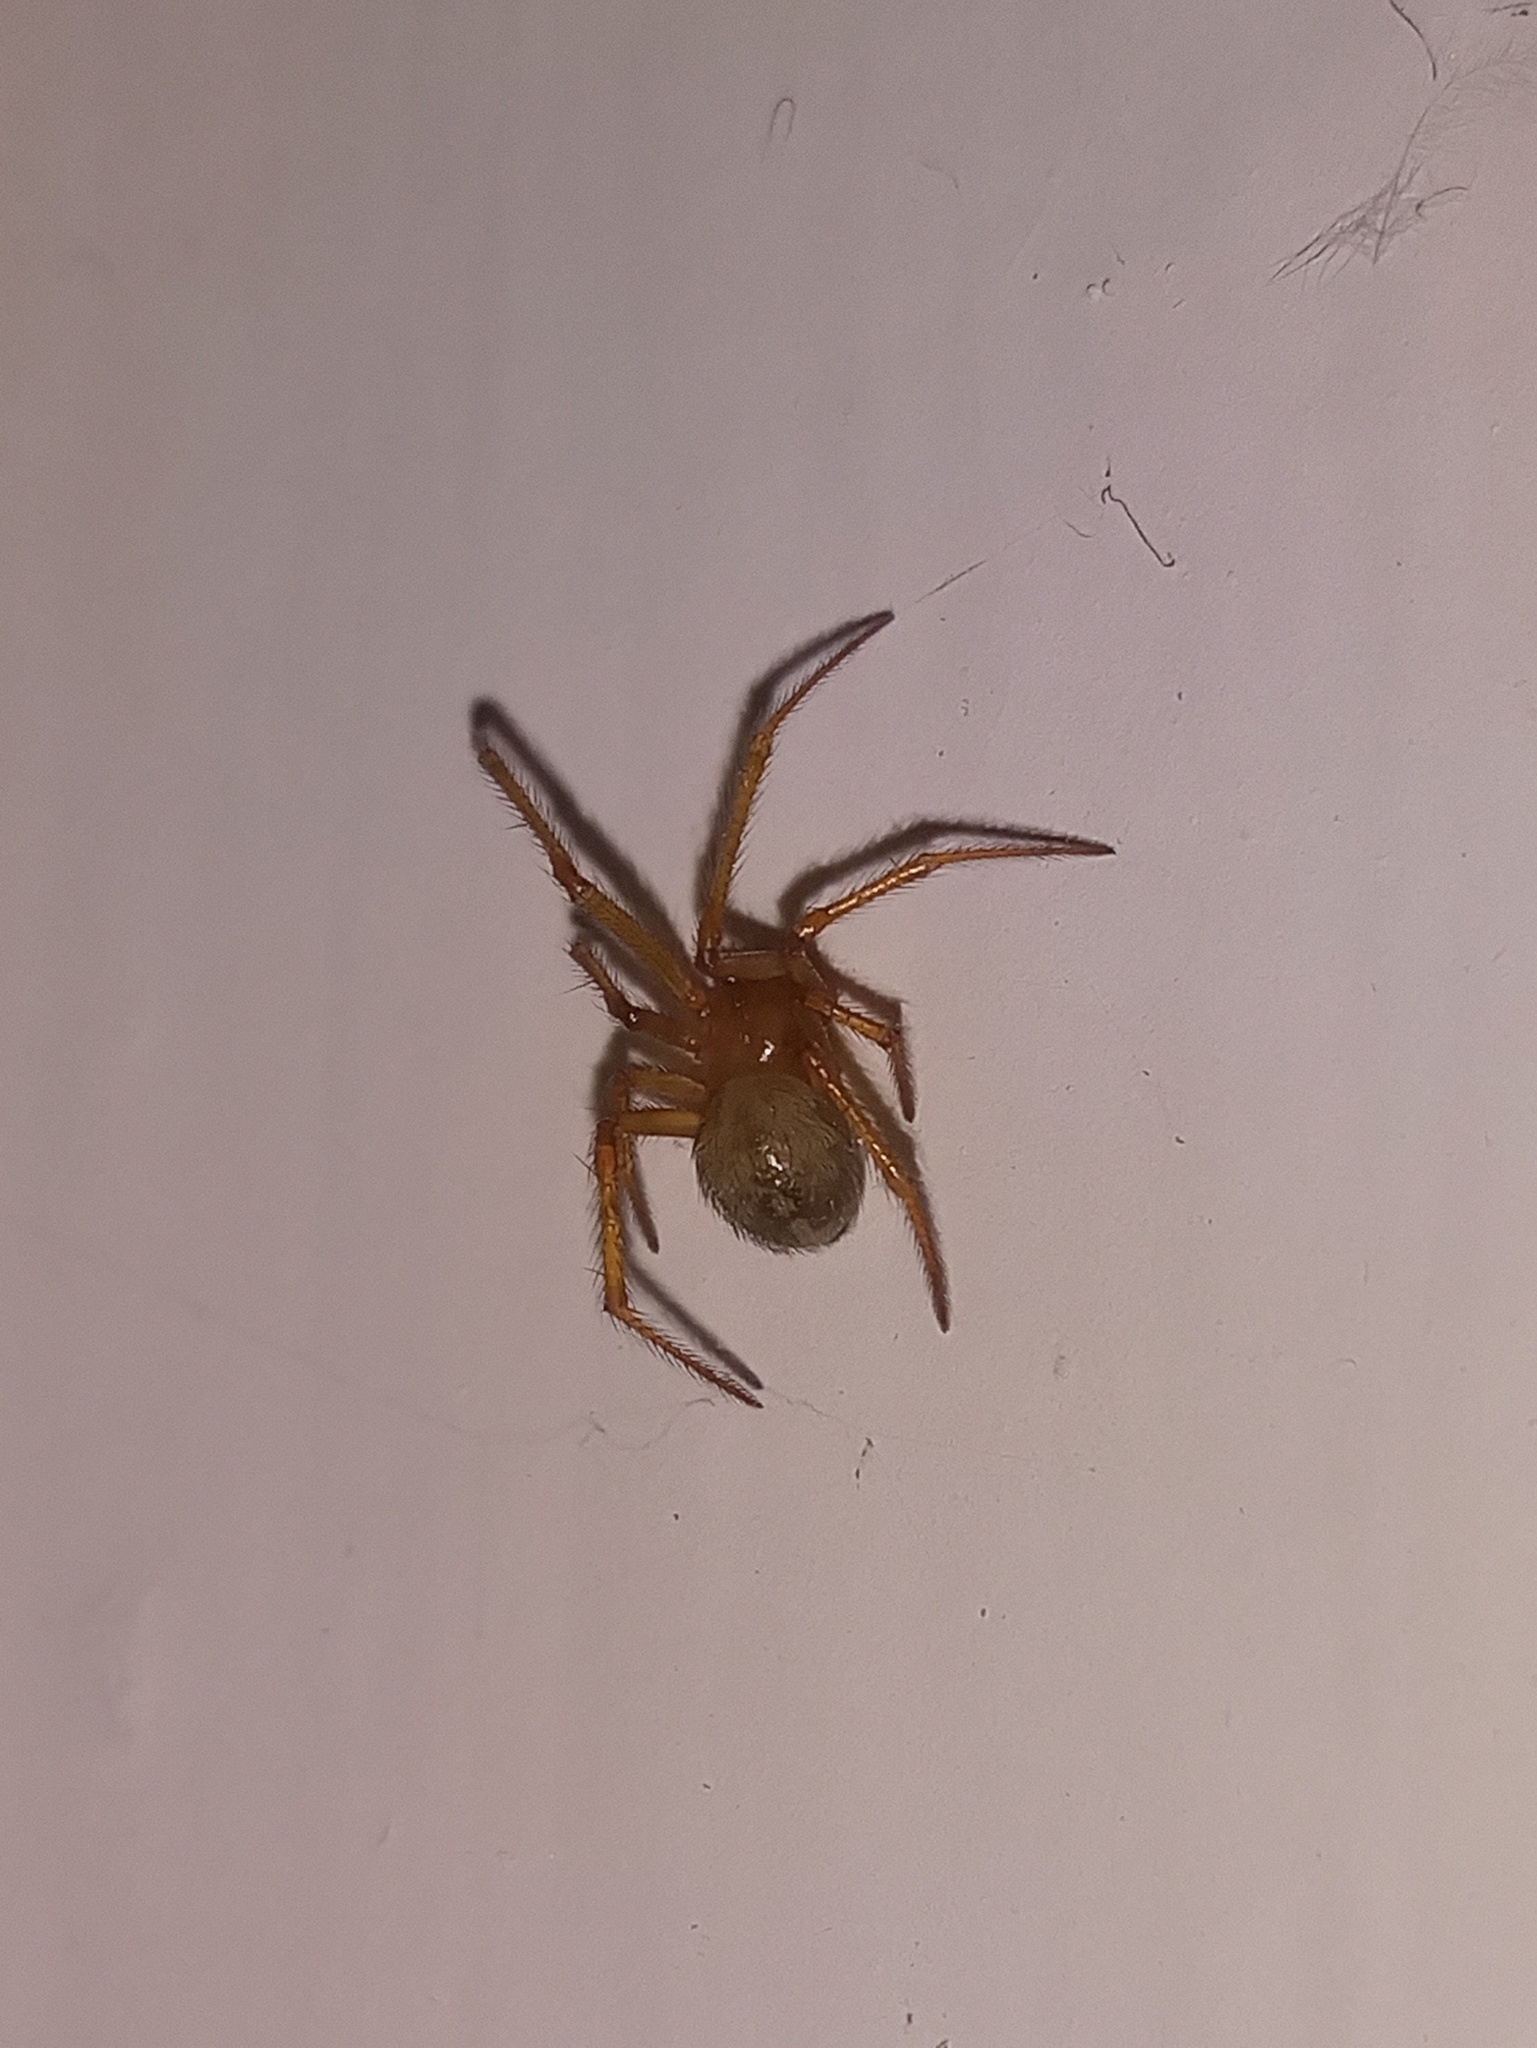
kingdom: Animalia
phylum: Arthropoda
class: Arachnida
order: Araneae
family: Theridiidae
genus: Nesticodes
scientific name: Nesticodes rufipes
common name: Cobweb spiders
